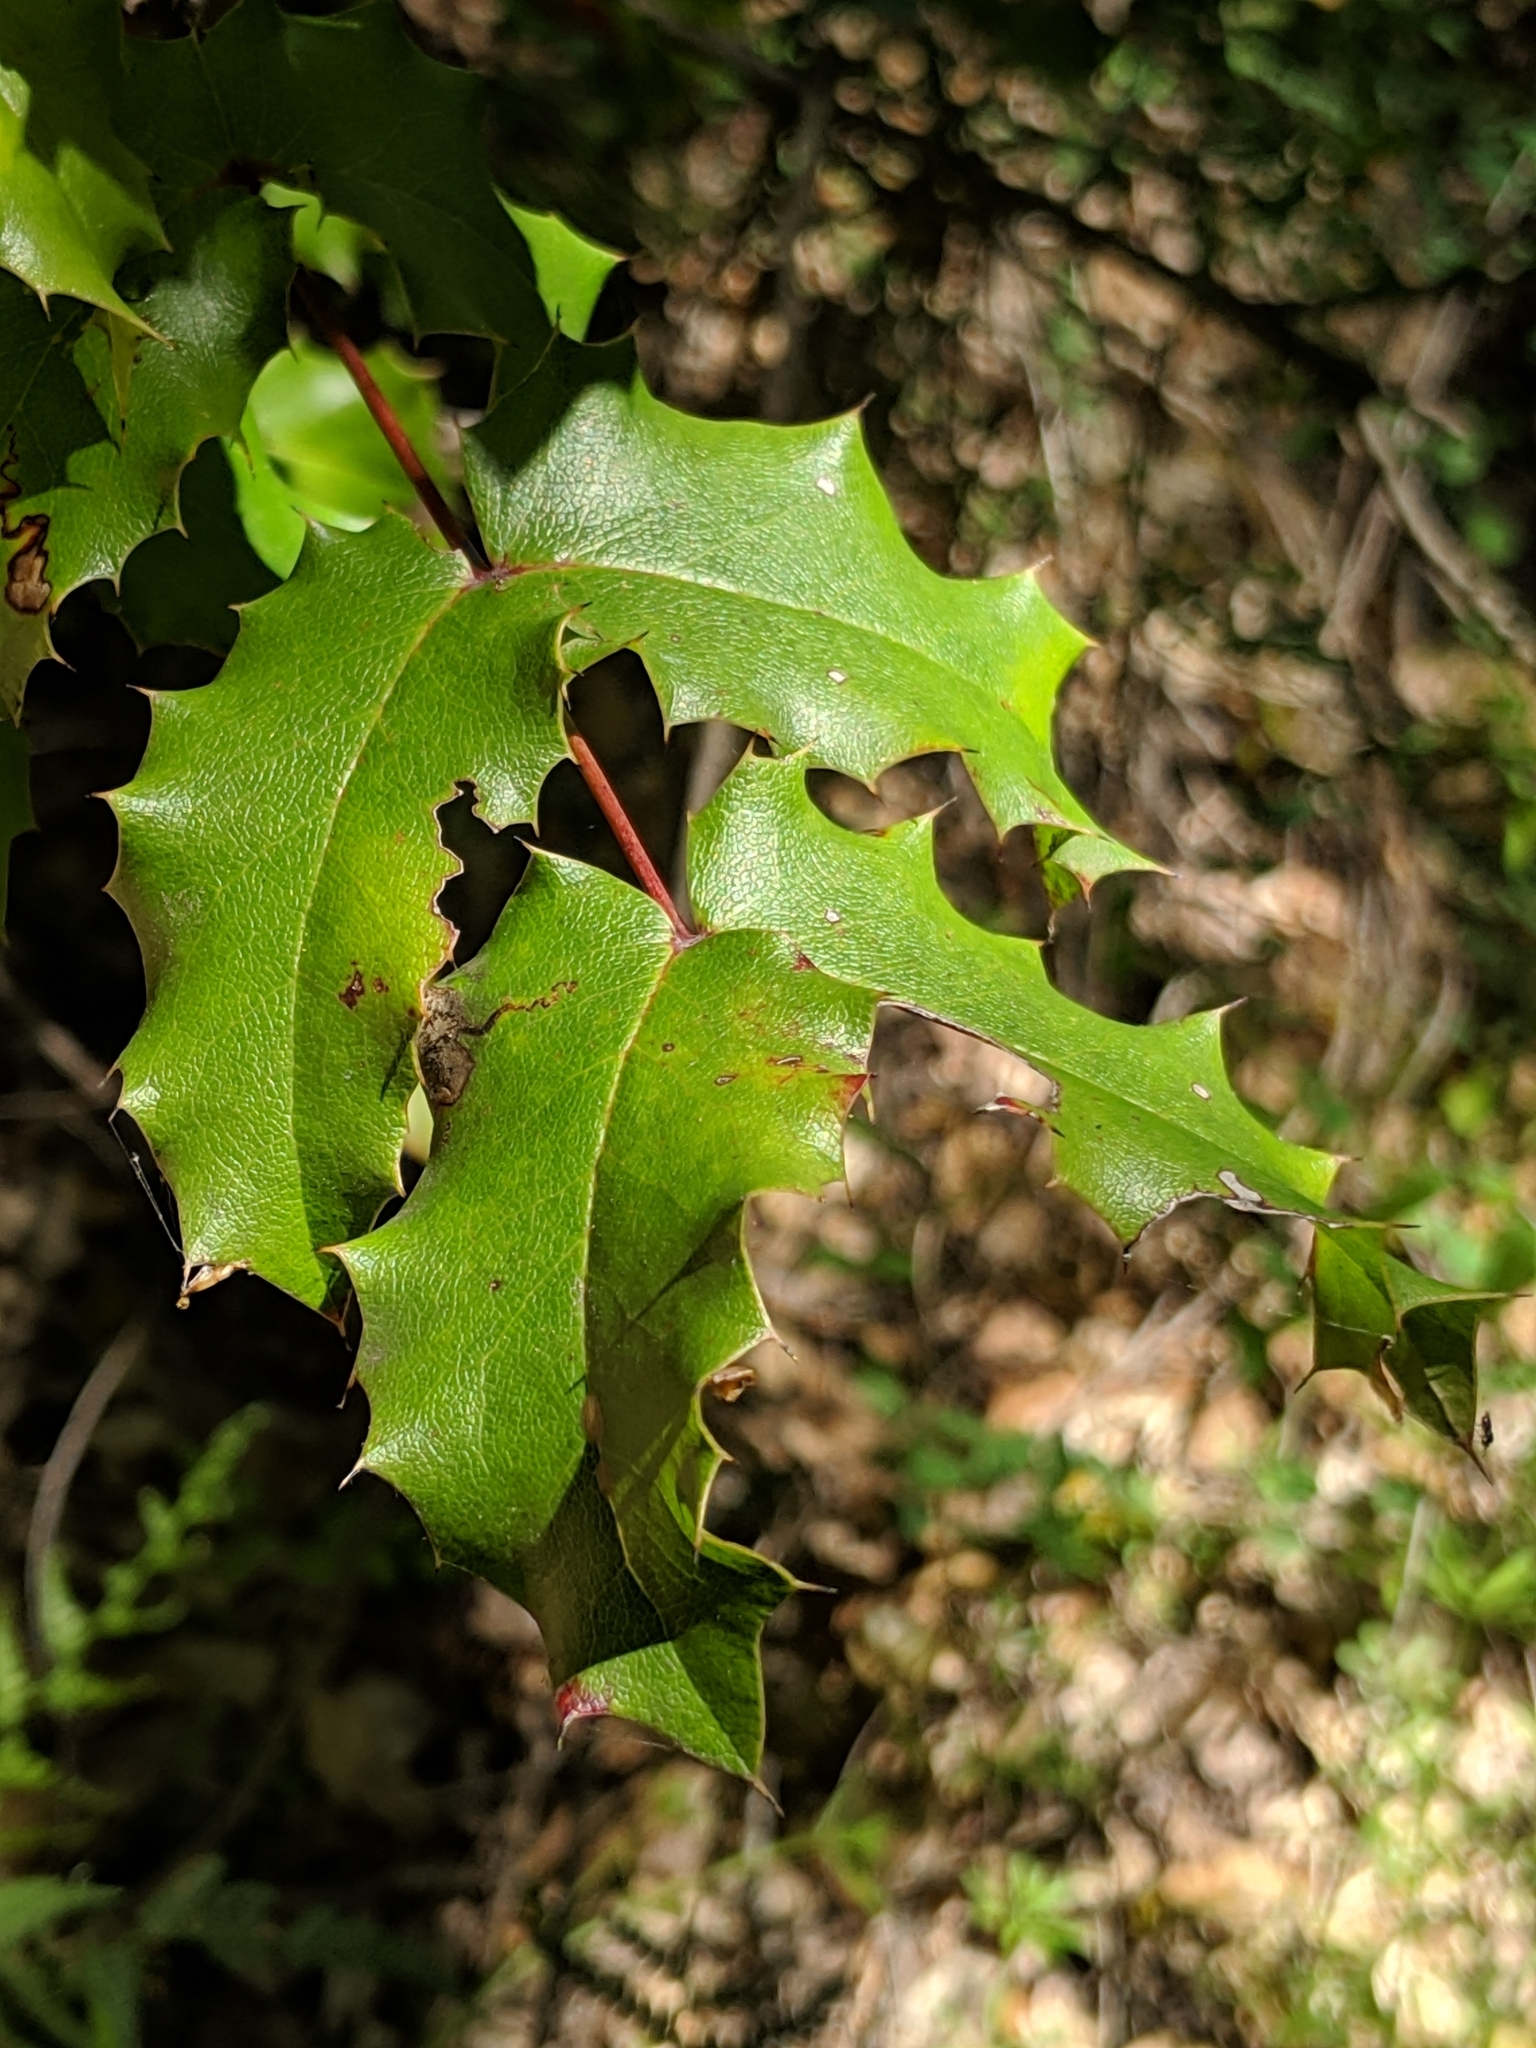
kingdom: Plantae
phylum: Tracheophyta
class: Magnoliopsida
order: Ranunculales
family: Berberidaceae
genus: Mahonia
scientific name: Mahonia
